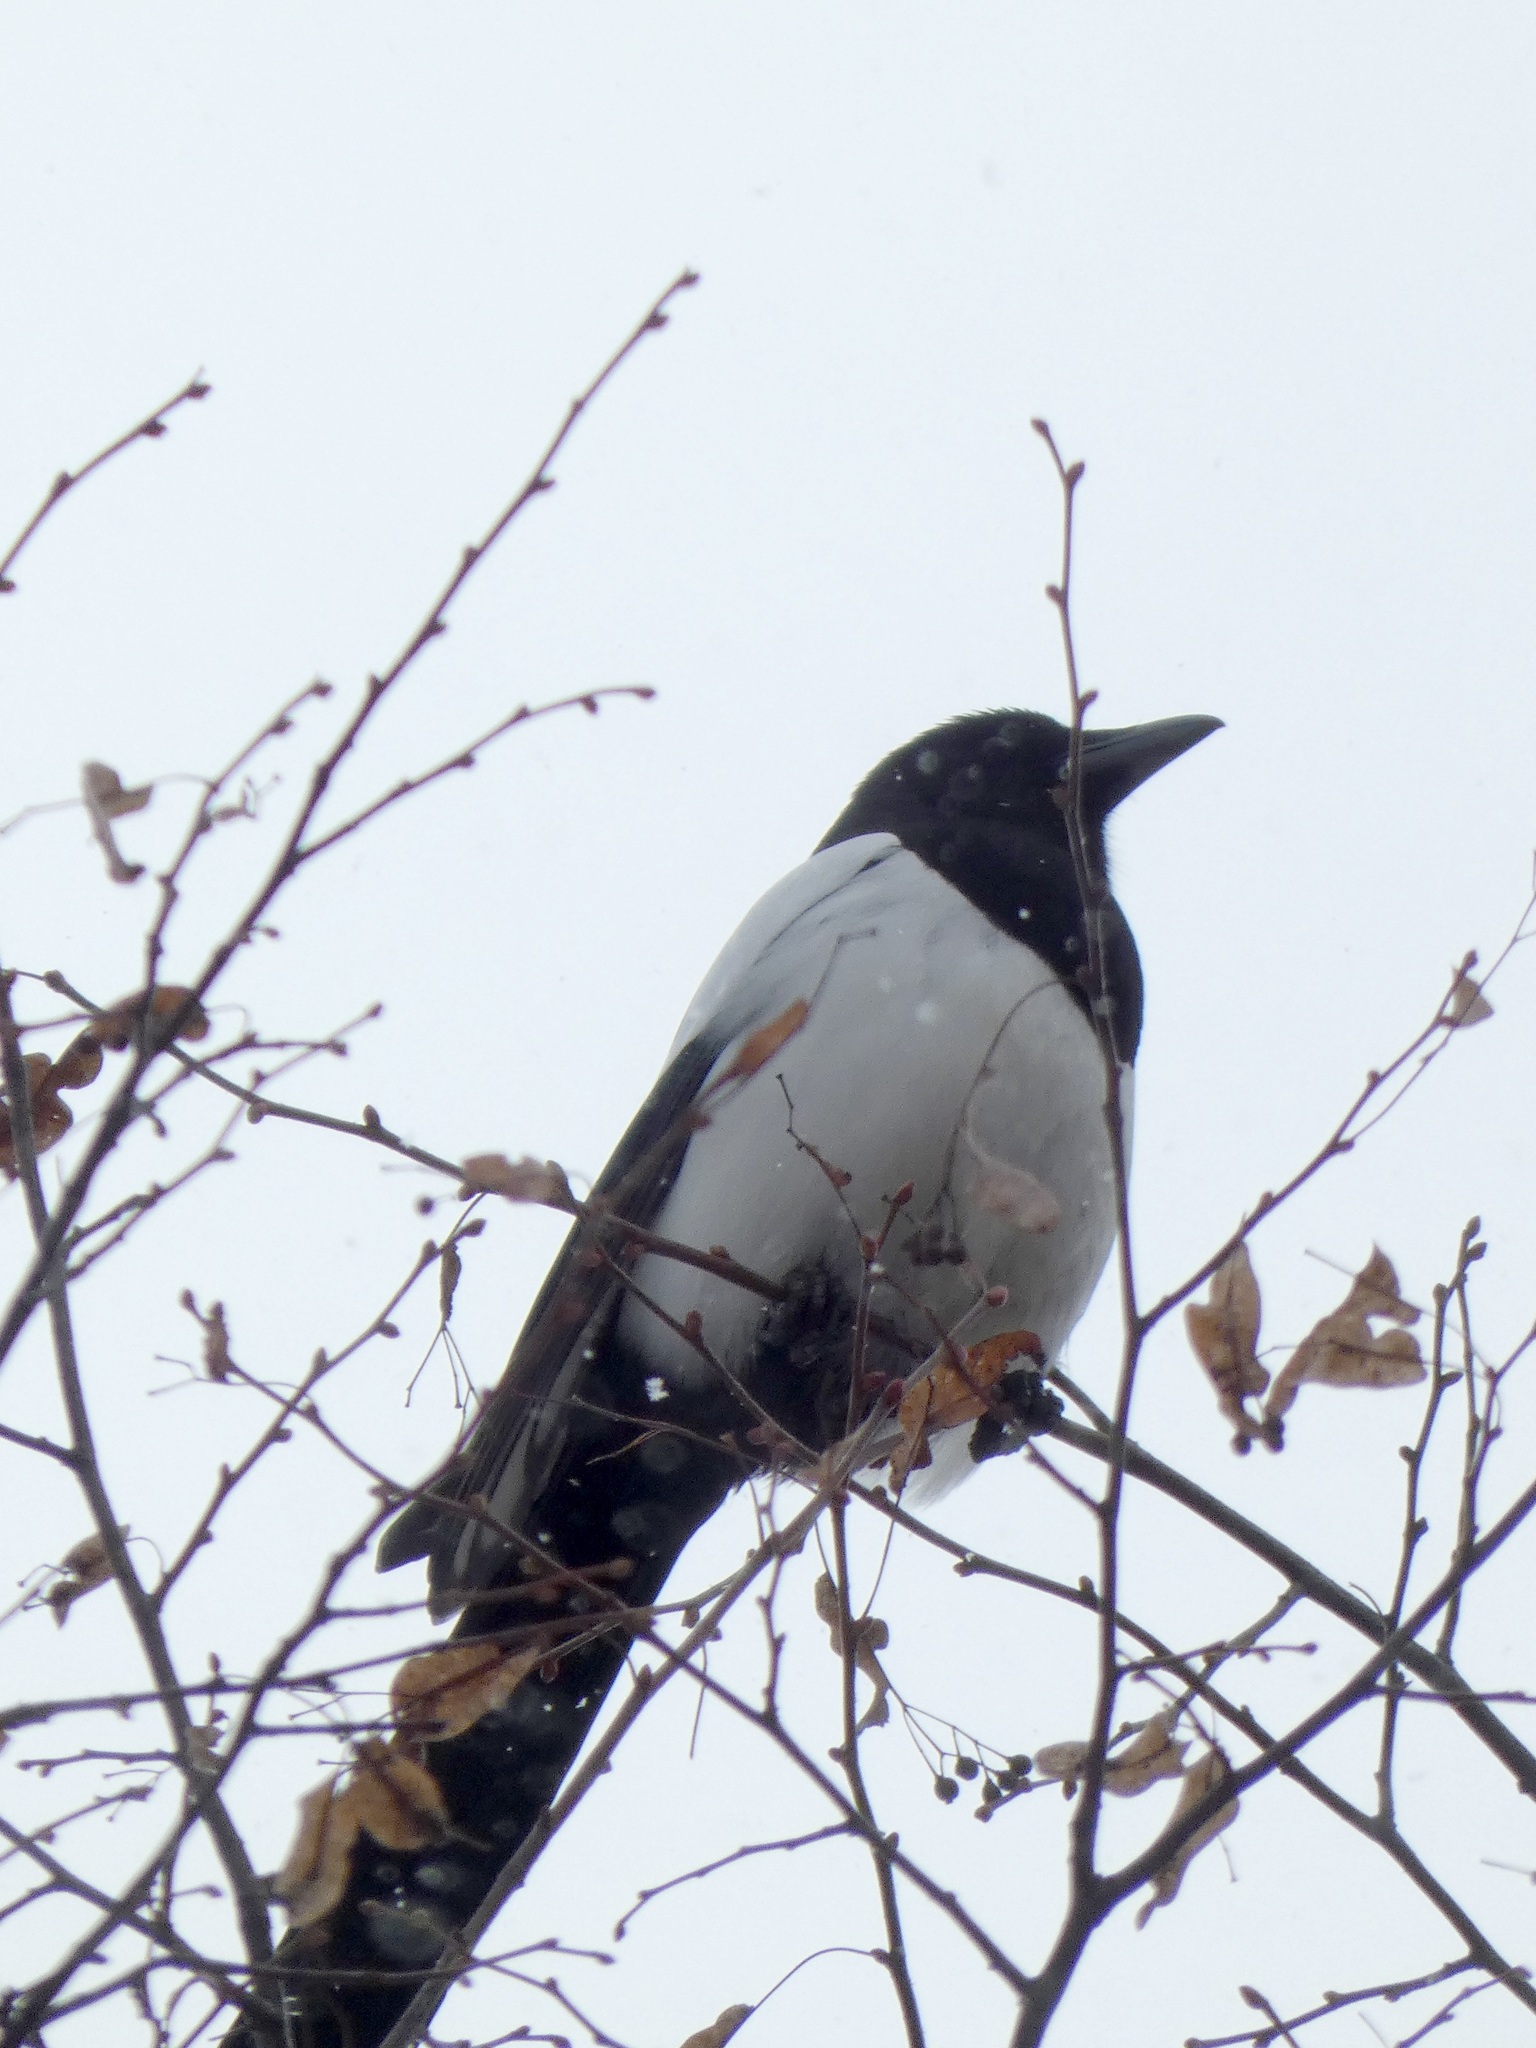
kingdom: Animalia
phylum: Chordata
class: Aves
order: Passeriformes
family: Corvidae
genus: Pica
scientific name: Pica pica
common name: Eurasian magpie
